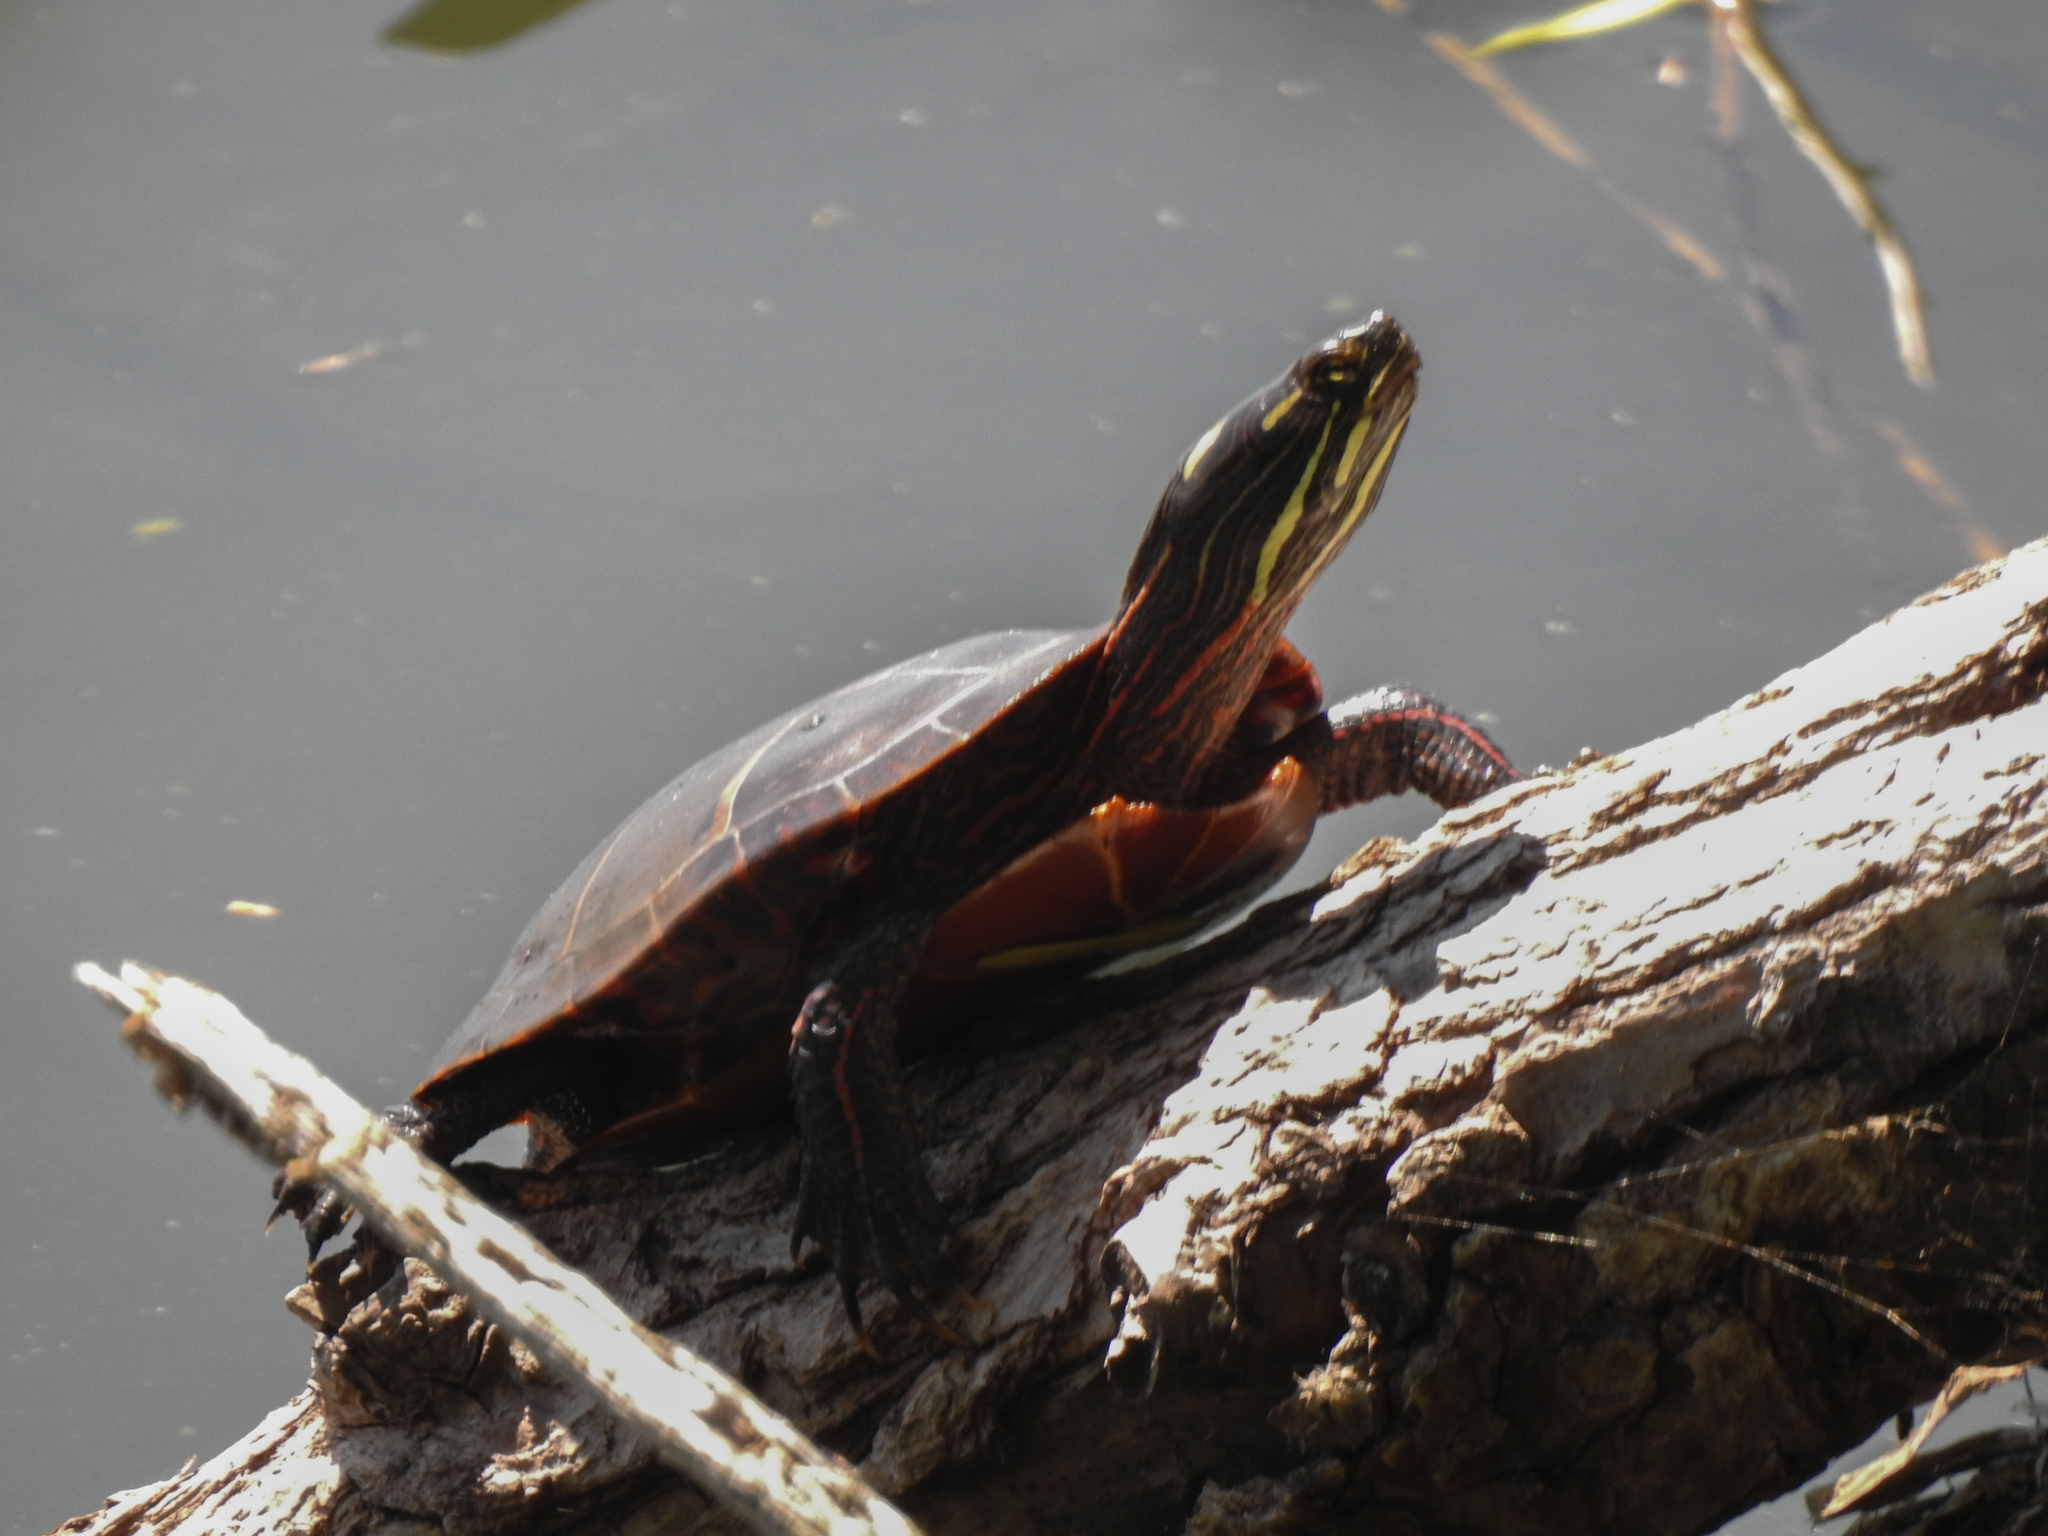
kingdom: Animalia
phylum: Chordata
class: Testudines
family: Emydidae
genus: Chrysemys
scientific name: Chrysemys picta
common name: Painted turtle
